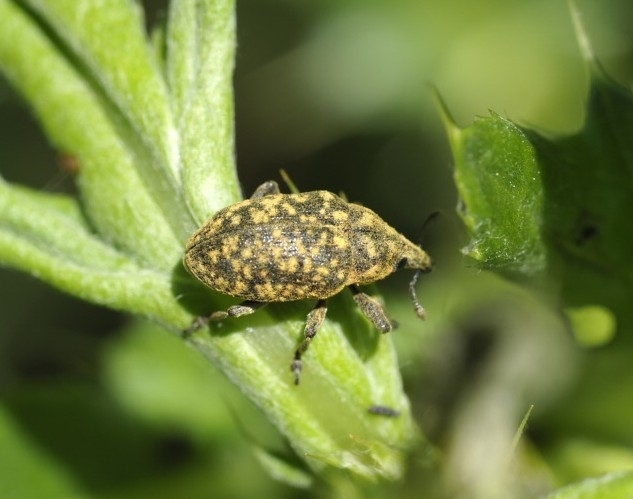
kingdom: Animalia
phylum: Arthropoda
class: Insecta
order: Coleoptera
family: Curculionidae
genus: Larinus
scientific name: Larinus turbinatus
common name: Weevil
